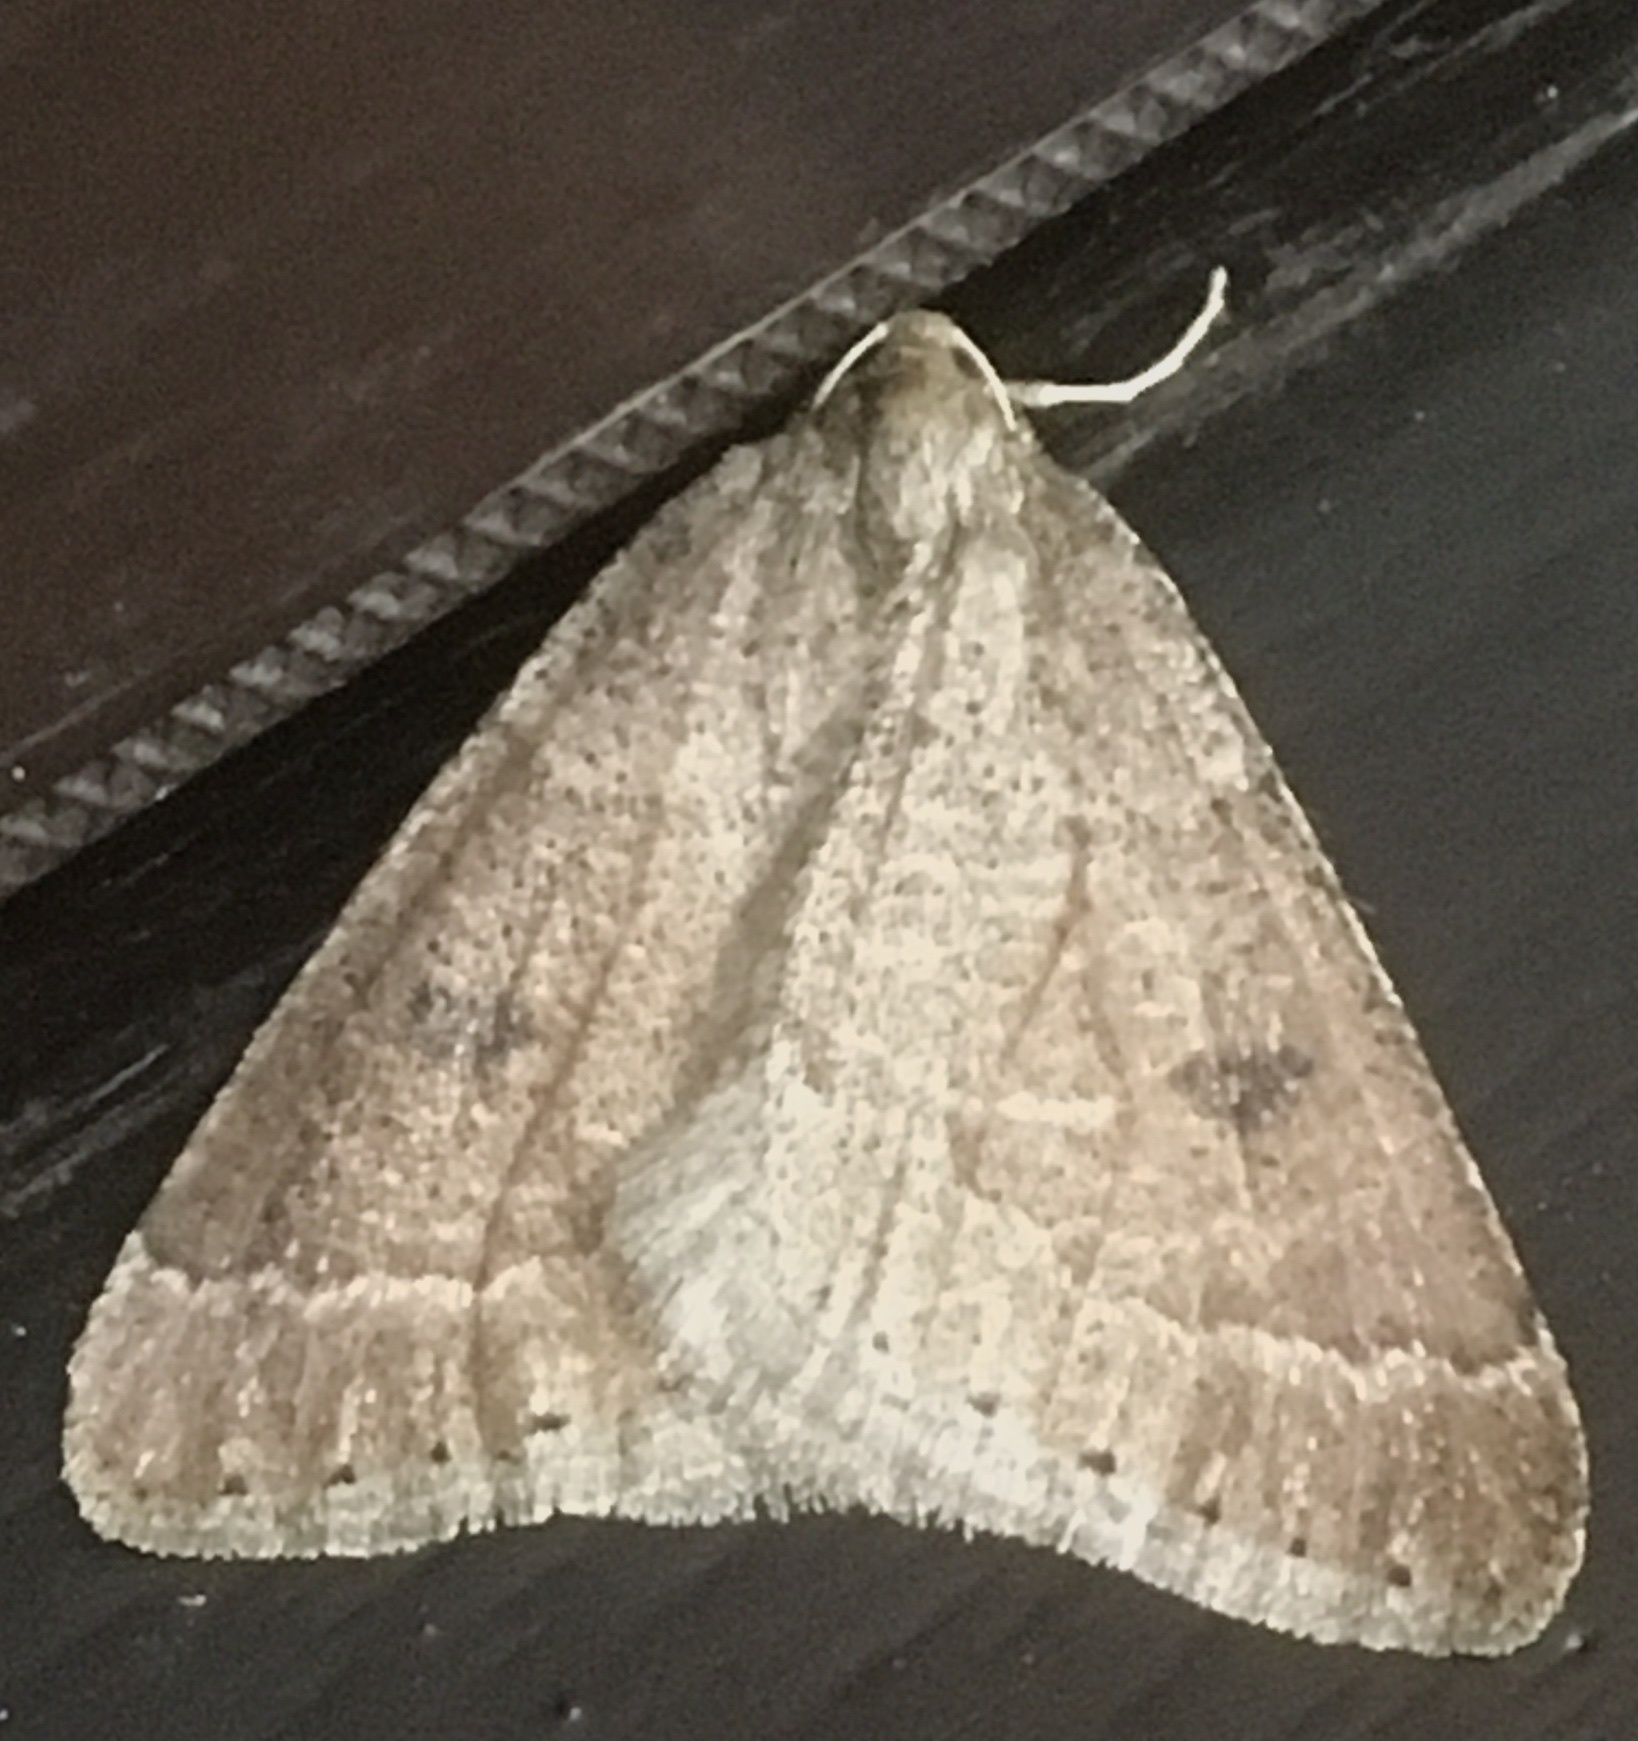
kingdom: Animalia
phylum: Arthropoda
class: Insecta
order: Lepidoptera
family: Geometridae
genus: Theria
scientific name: Theria primaria
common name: Early moth
